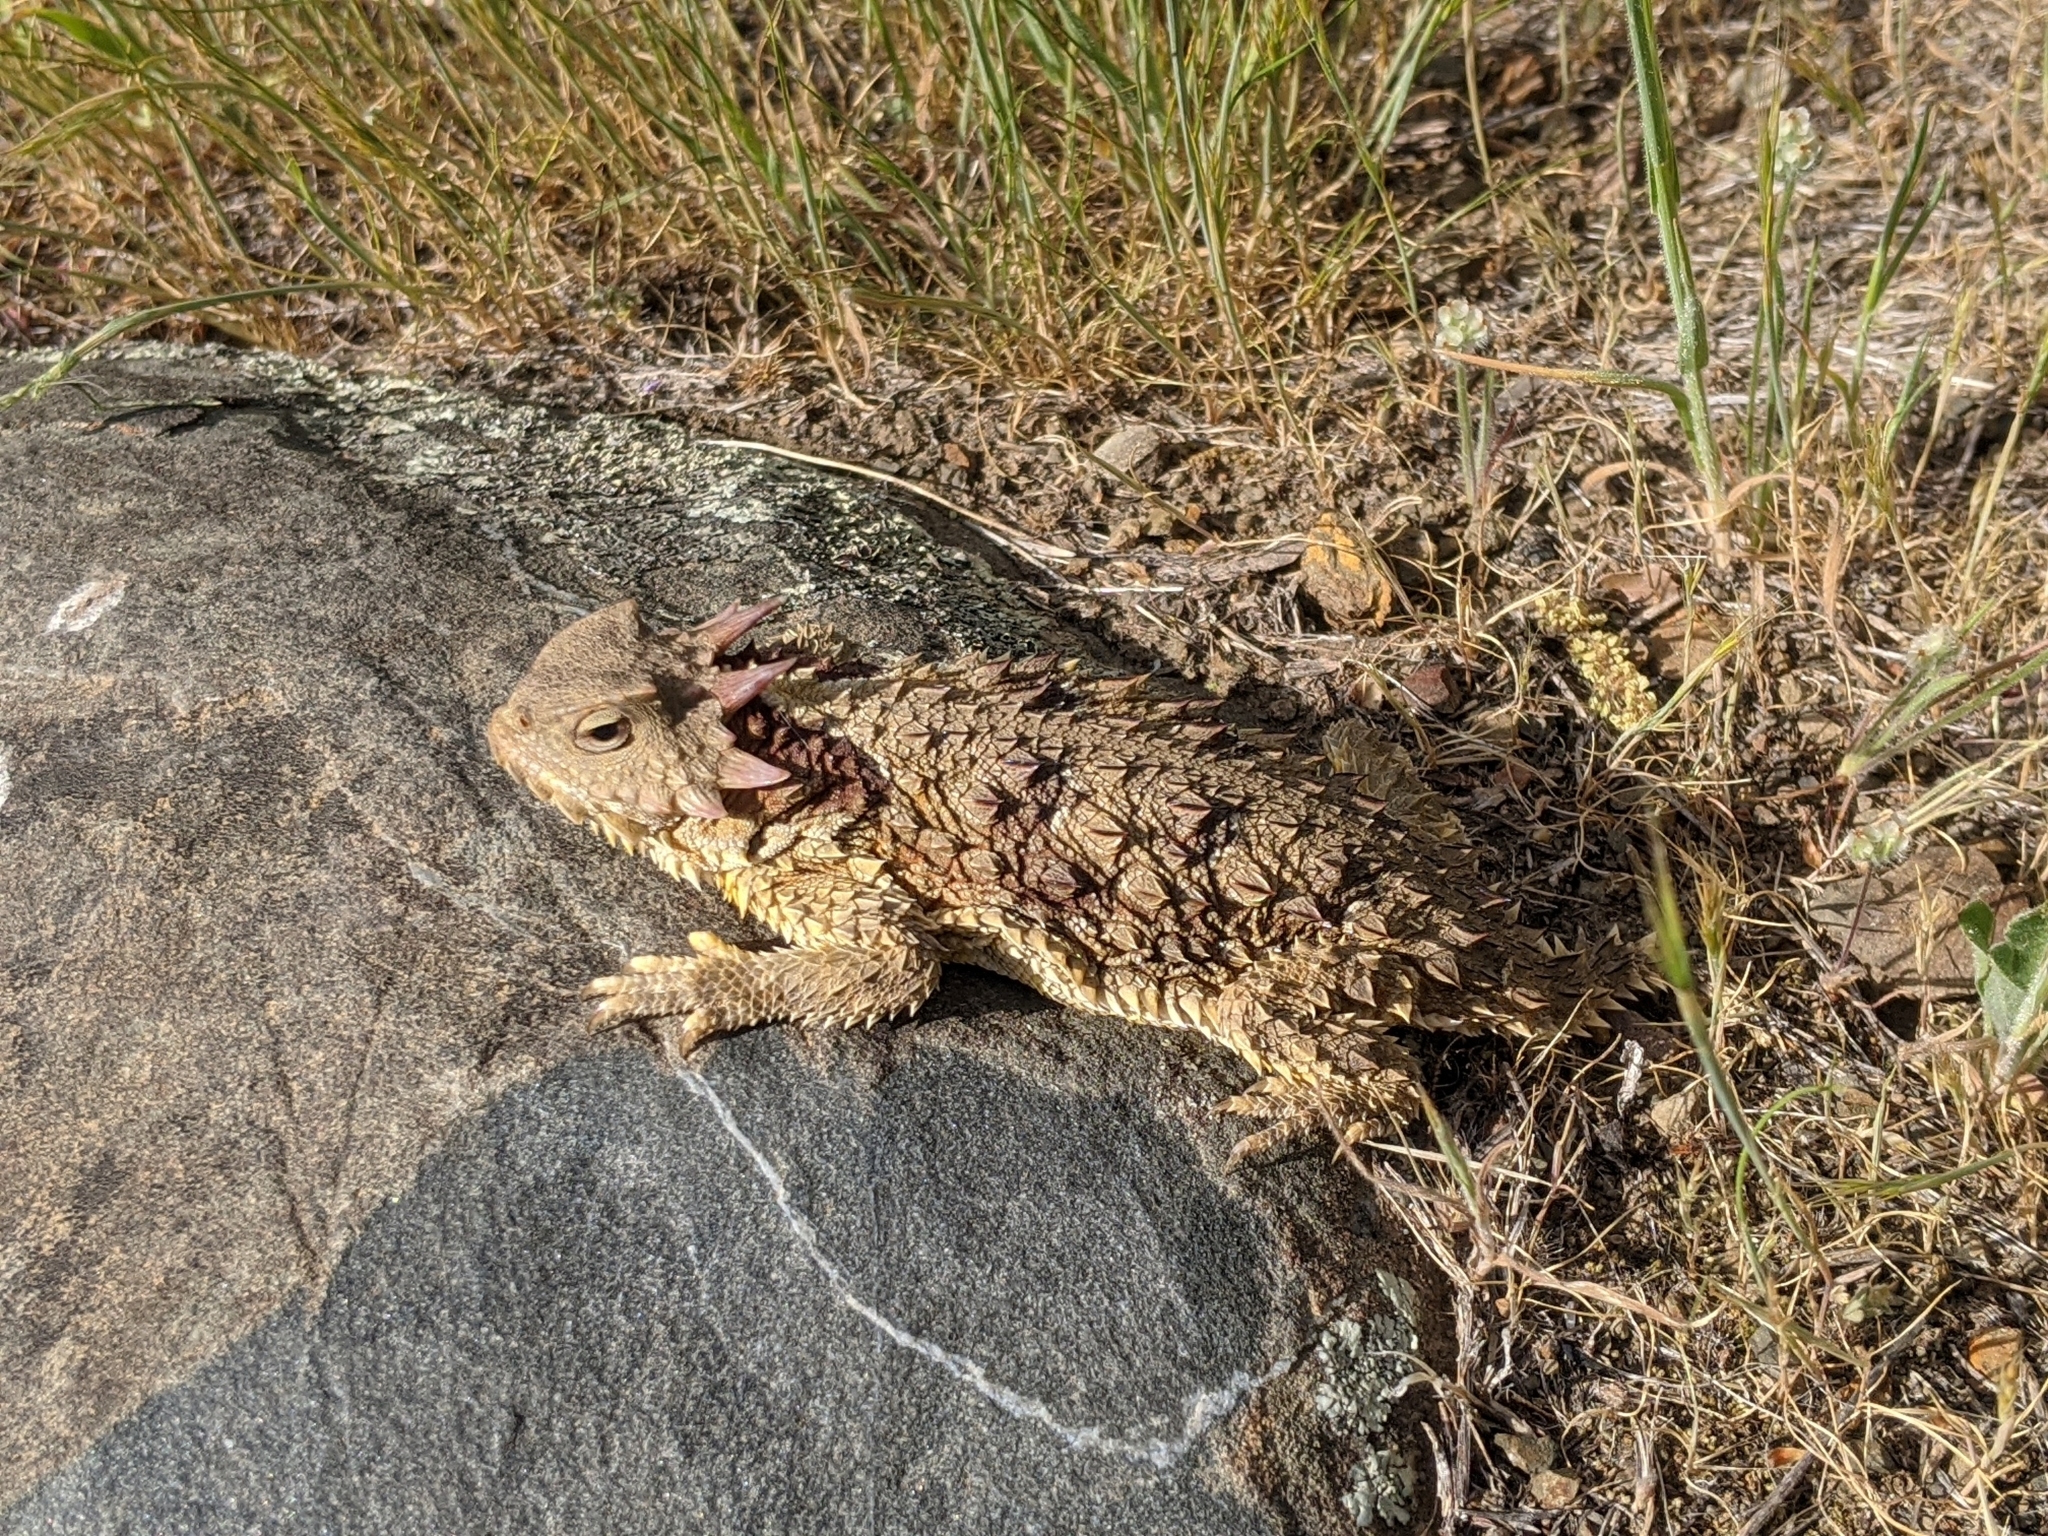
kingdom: Animalia
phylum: Chordata
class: Squamata
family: Phrynosomatidae
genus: Phrynosoma
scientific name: Phrynosoma blainvillii
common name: San diego horned lizard
